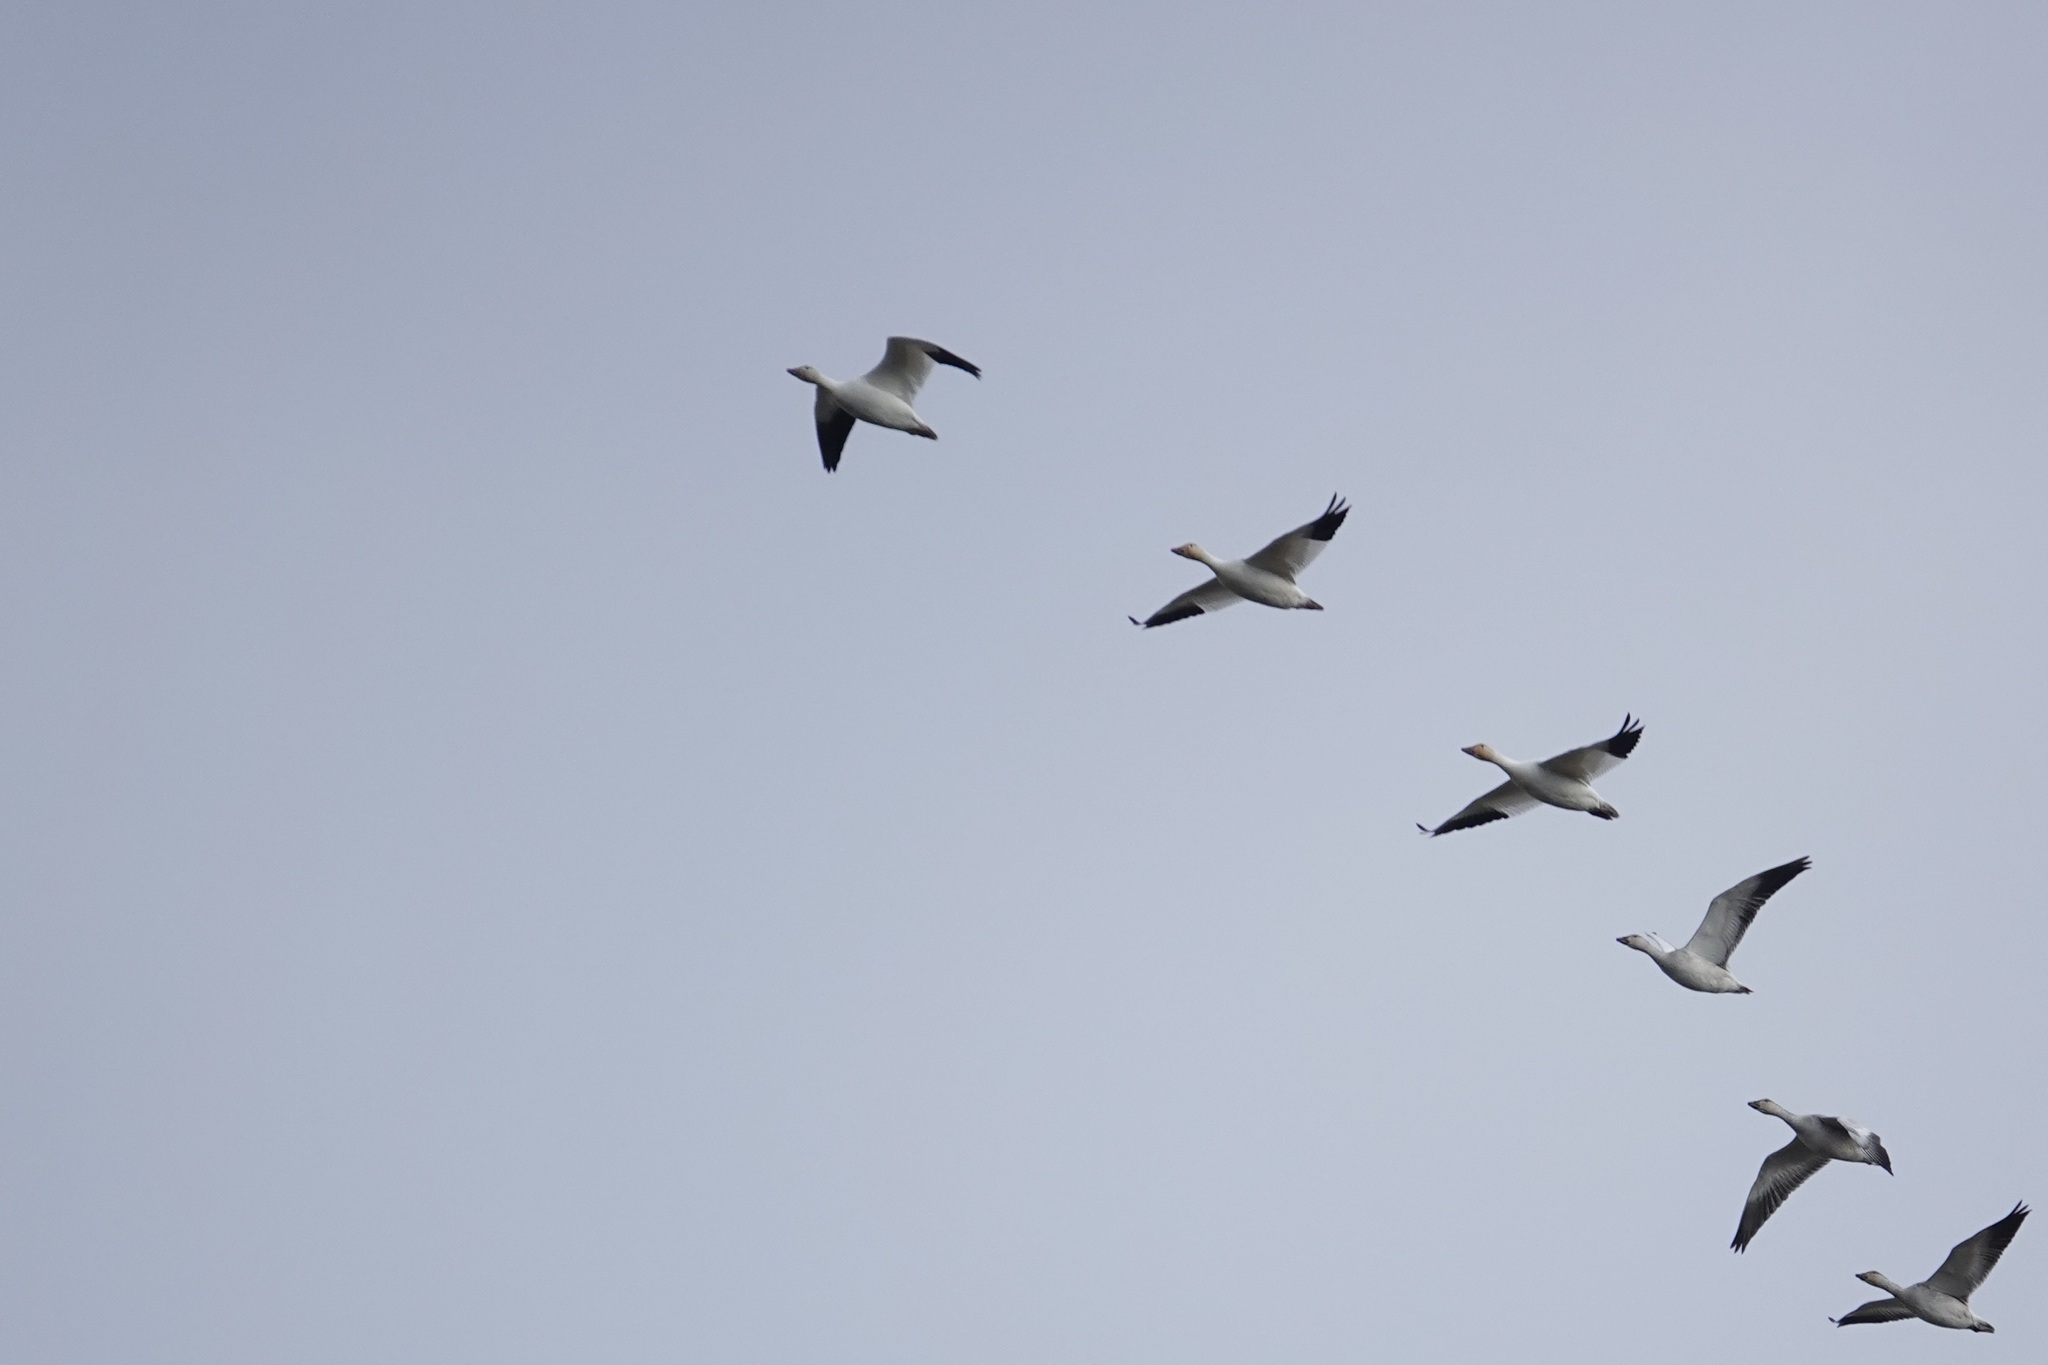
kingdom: Animalia
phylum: Chordata
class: Aves
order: Anseriformes
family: Anatidae
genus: Anser
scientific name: Anser caerulescens
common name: Snow goose
